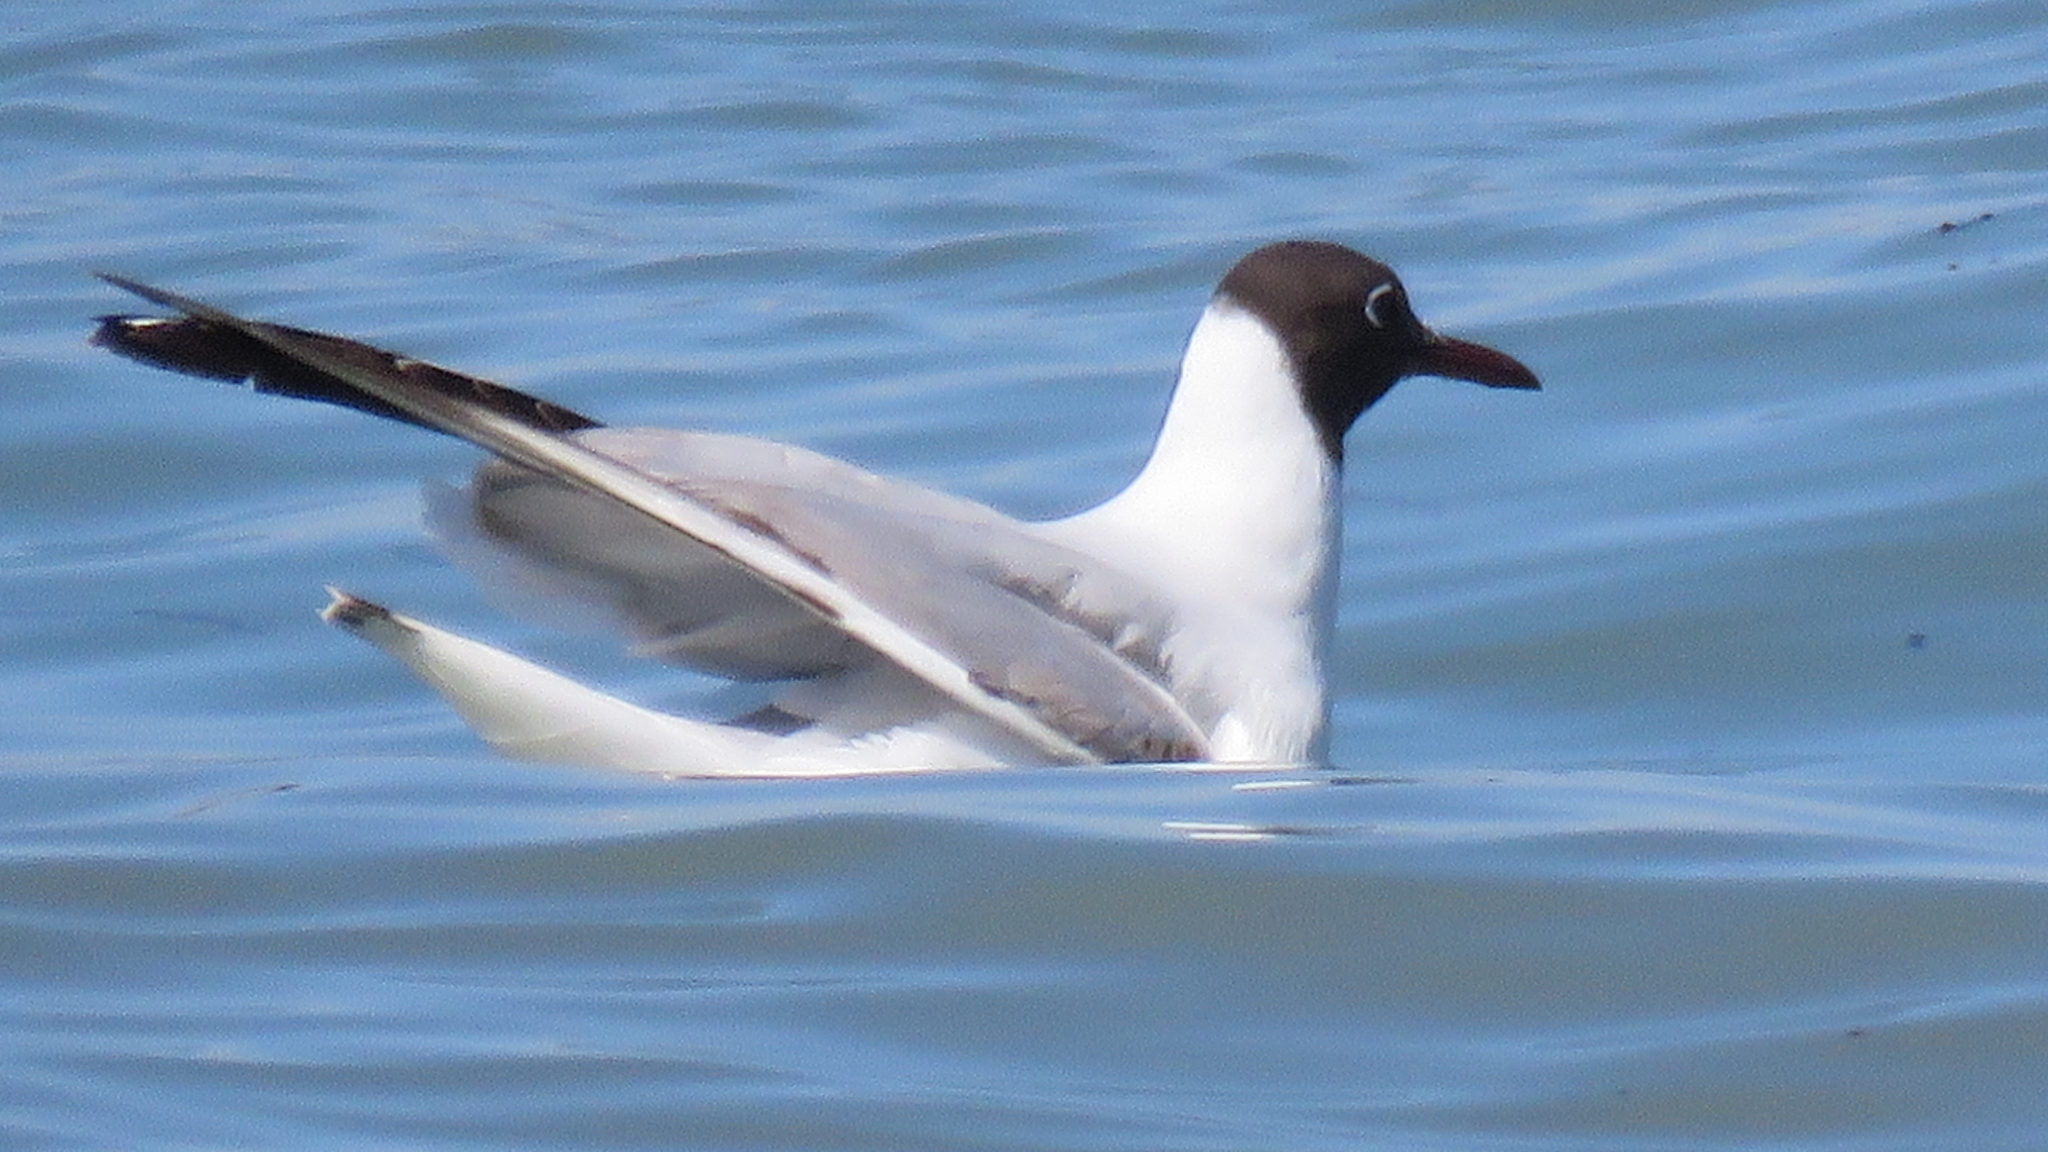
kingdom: Animalia
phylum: Chordata
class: Aves
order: Charadriiformes
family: Laridae
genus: Chroicocephalus
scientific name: Chroicocephalus ridibundus
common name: Black-headed gull
